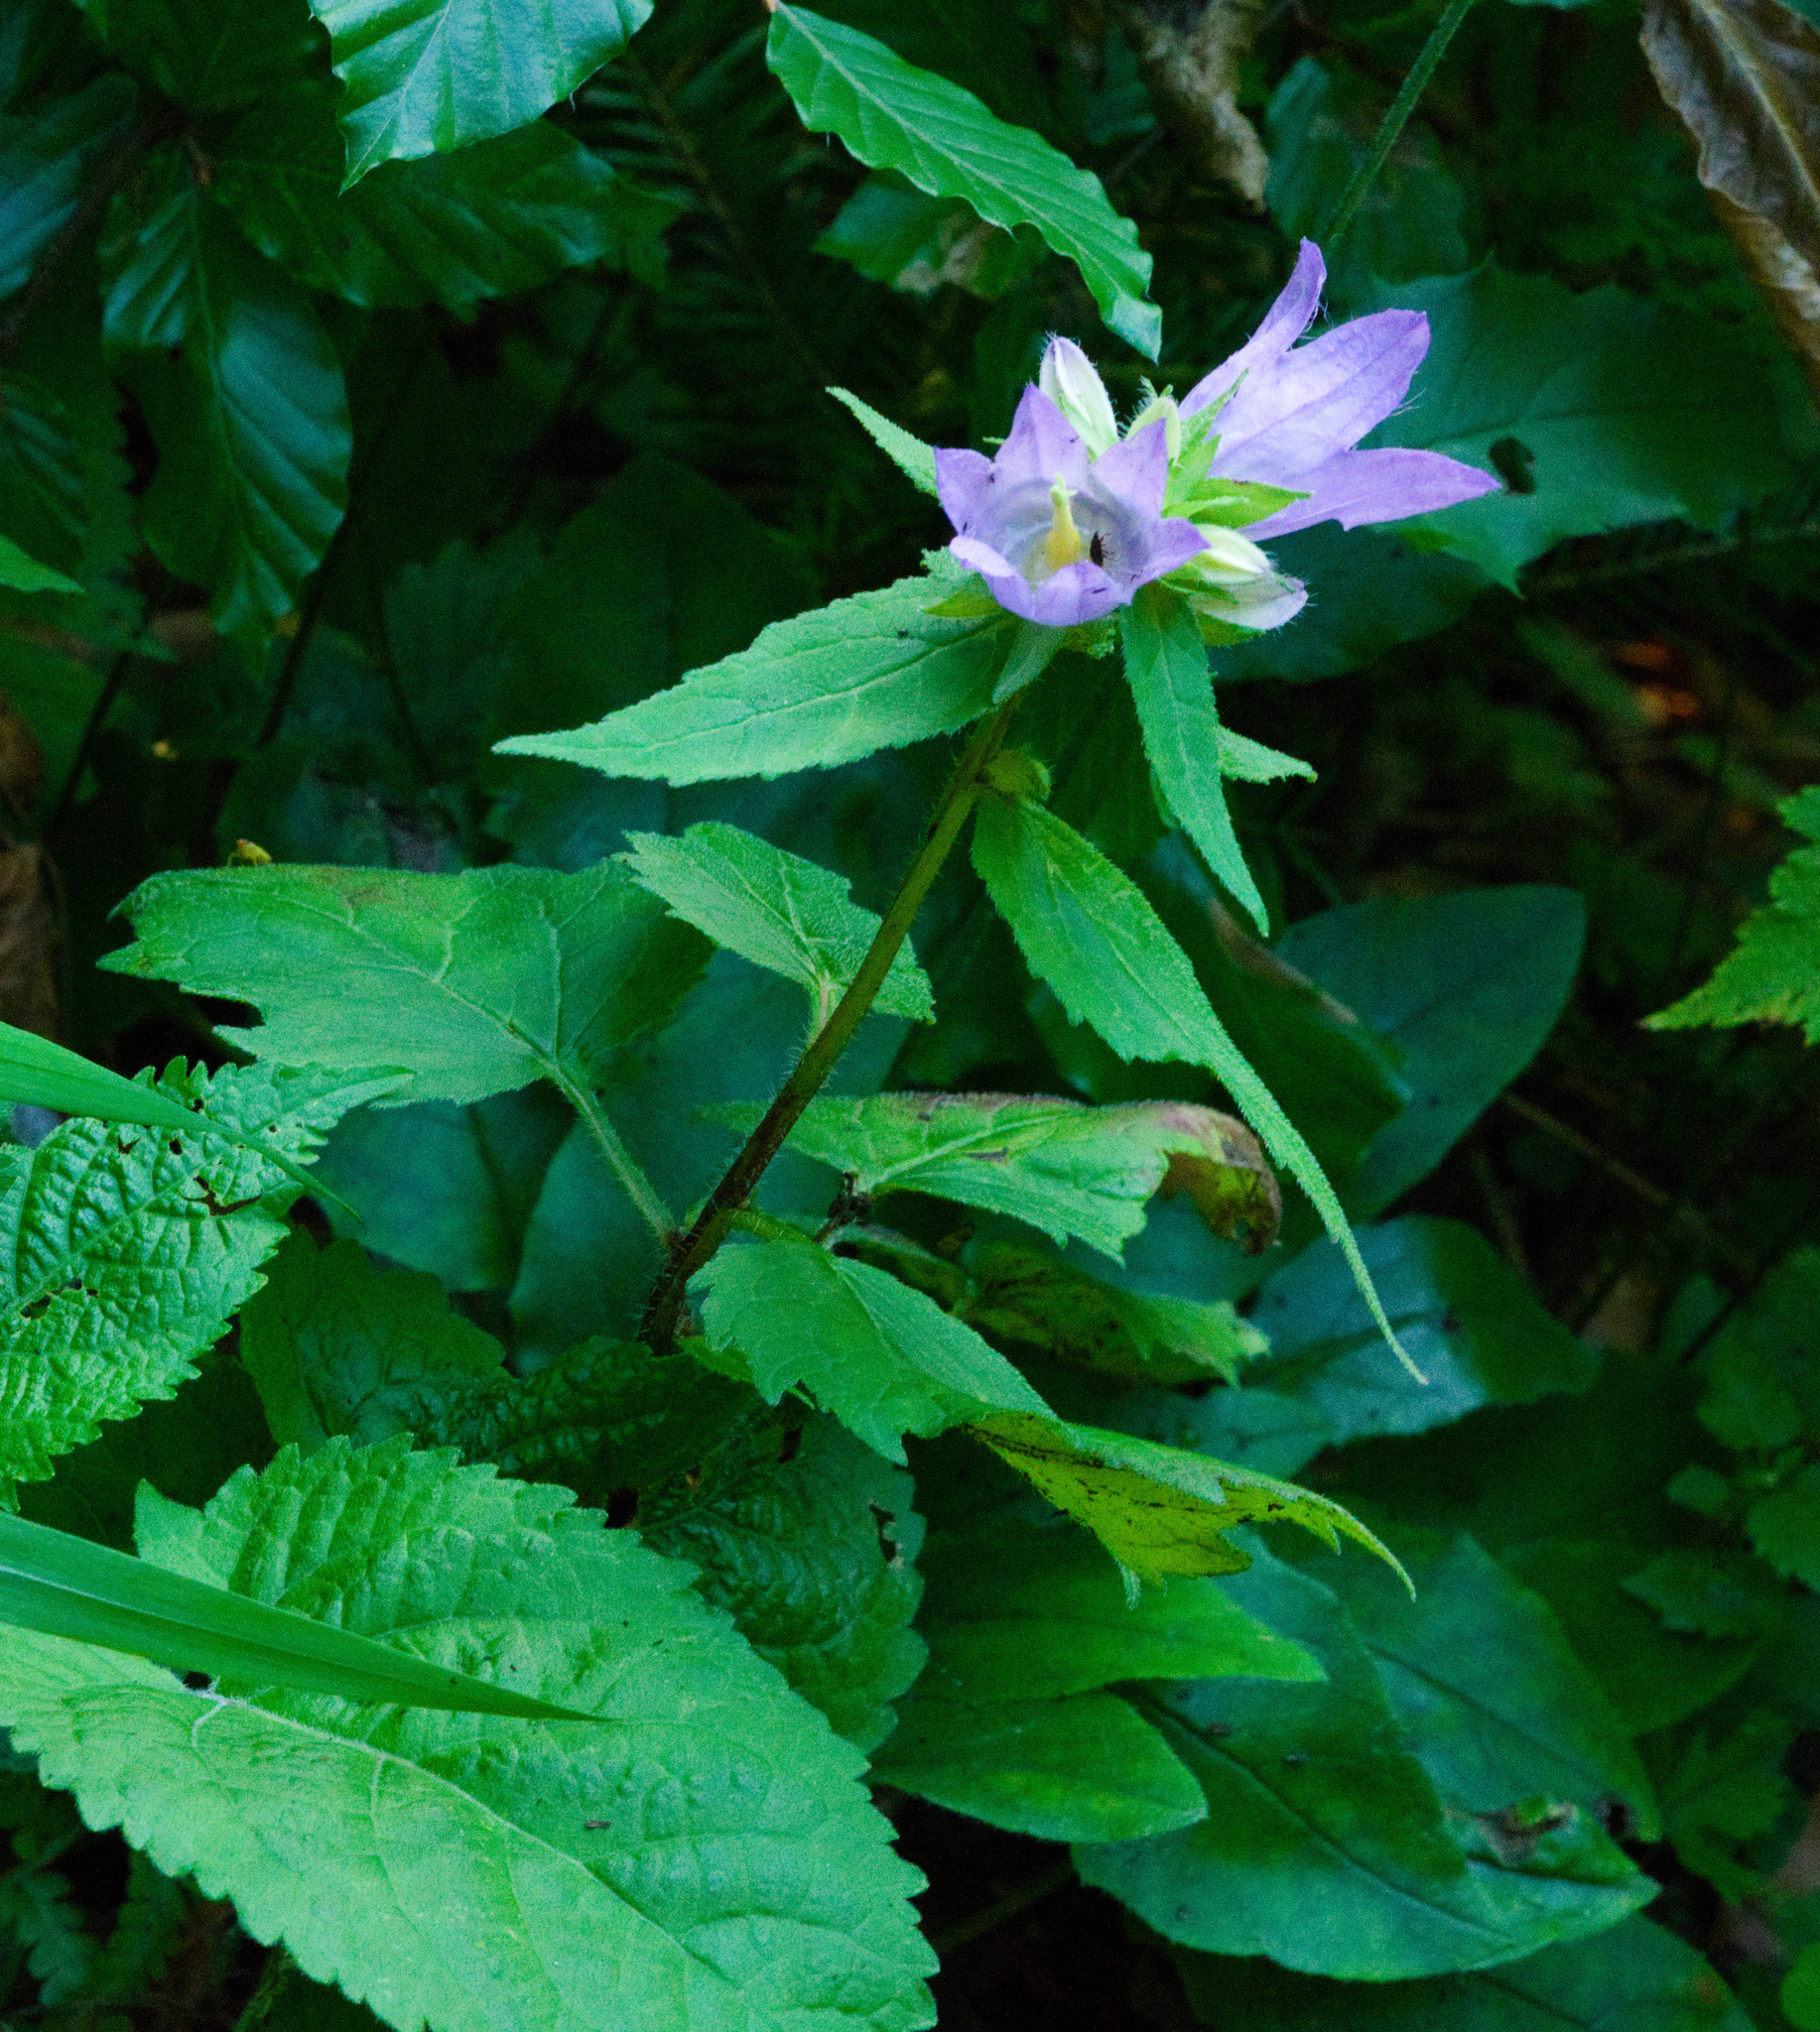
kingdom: Plantae
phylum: Tracheophyta
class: Magnoliopsida
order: Asterales
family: Campanulaceae
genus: Campanula
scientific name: Campanula trachelium
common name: Nettle-leaved bellflower
